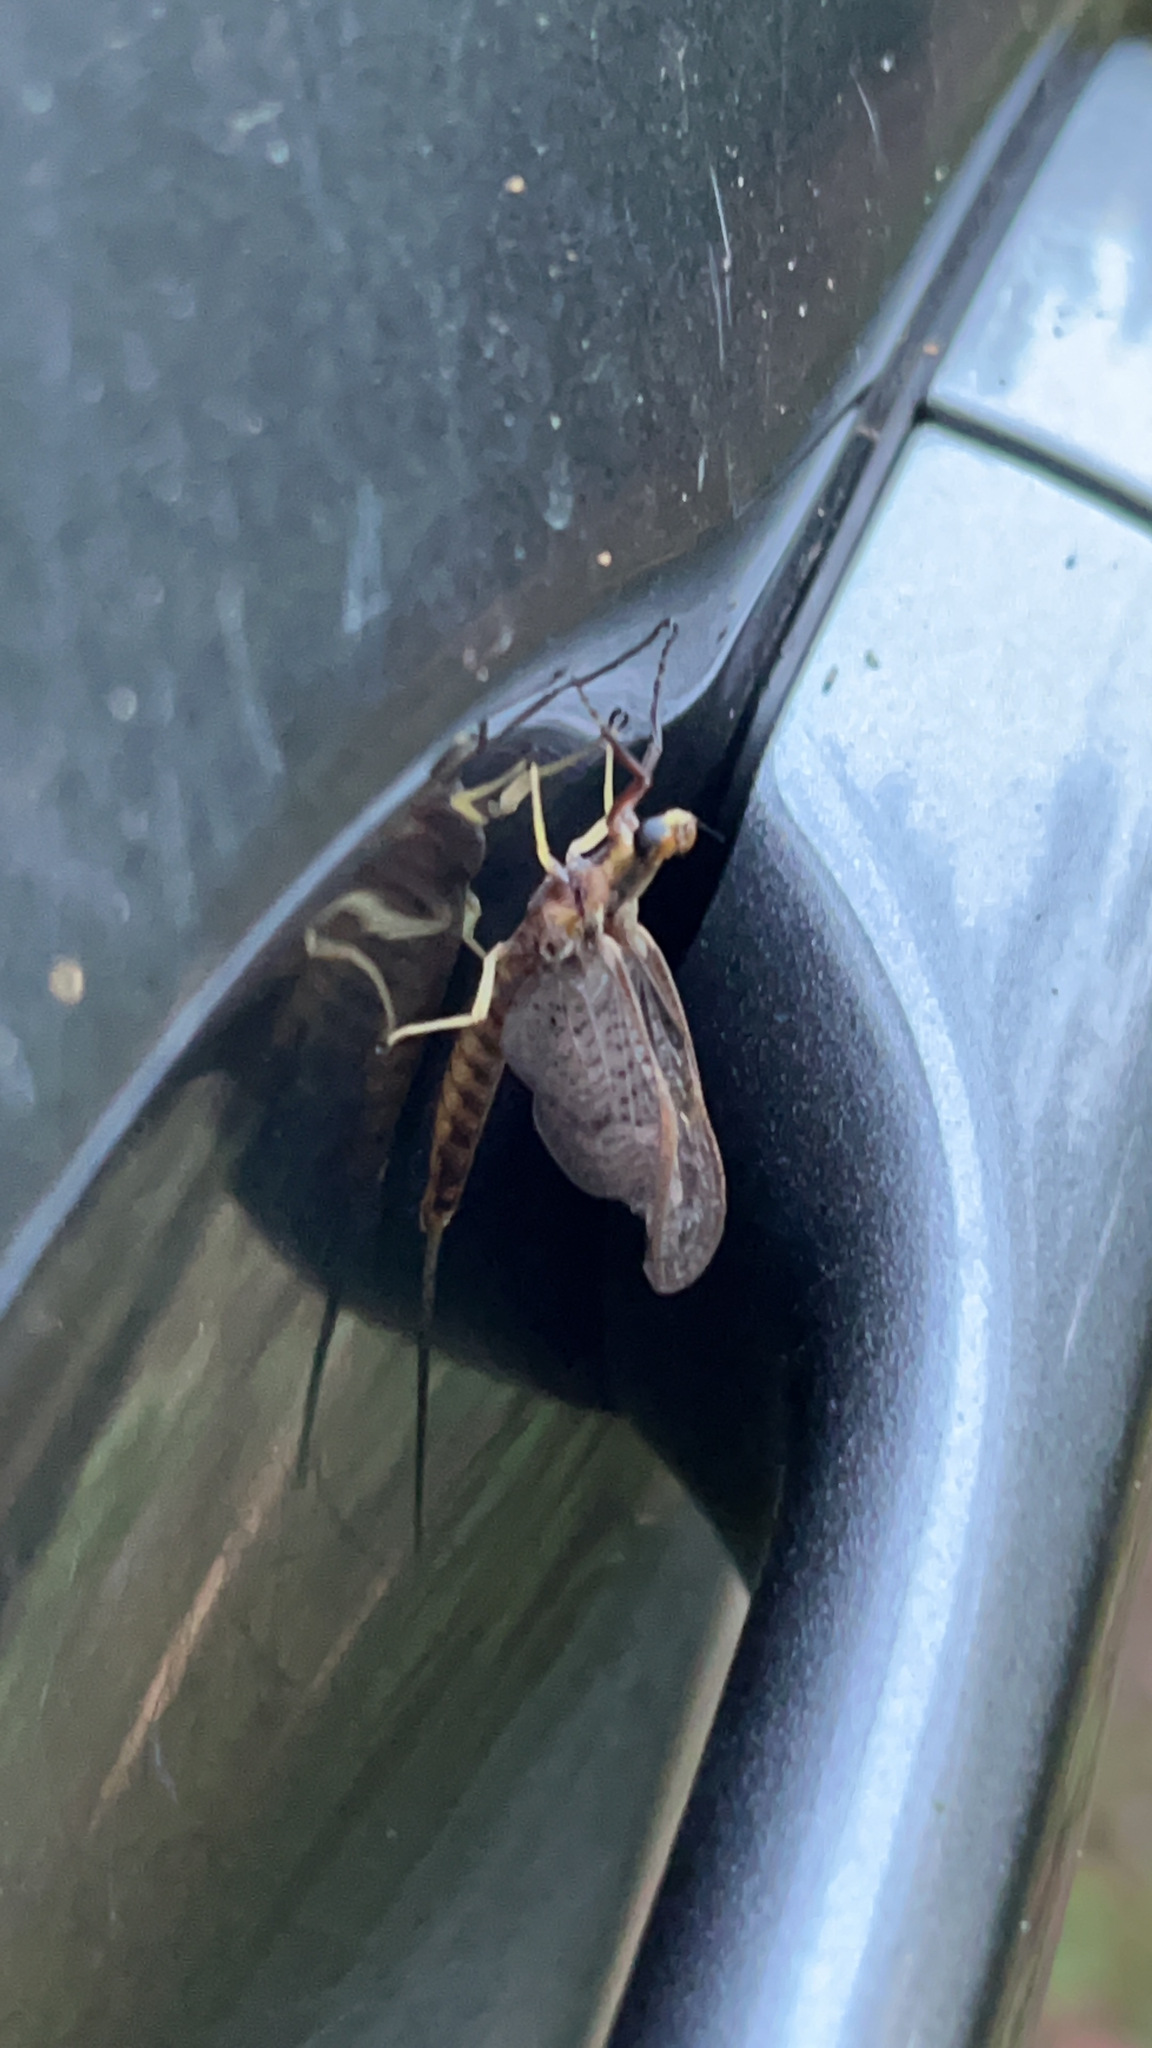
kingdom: Animalia
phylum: Arthropoda
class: Insecta
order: Ephemeroptera
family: Ephemeridae
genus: Hexagenia
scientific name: Hexagenia
